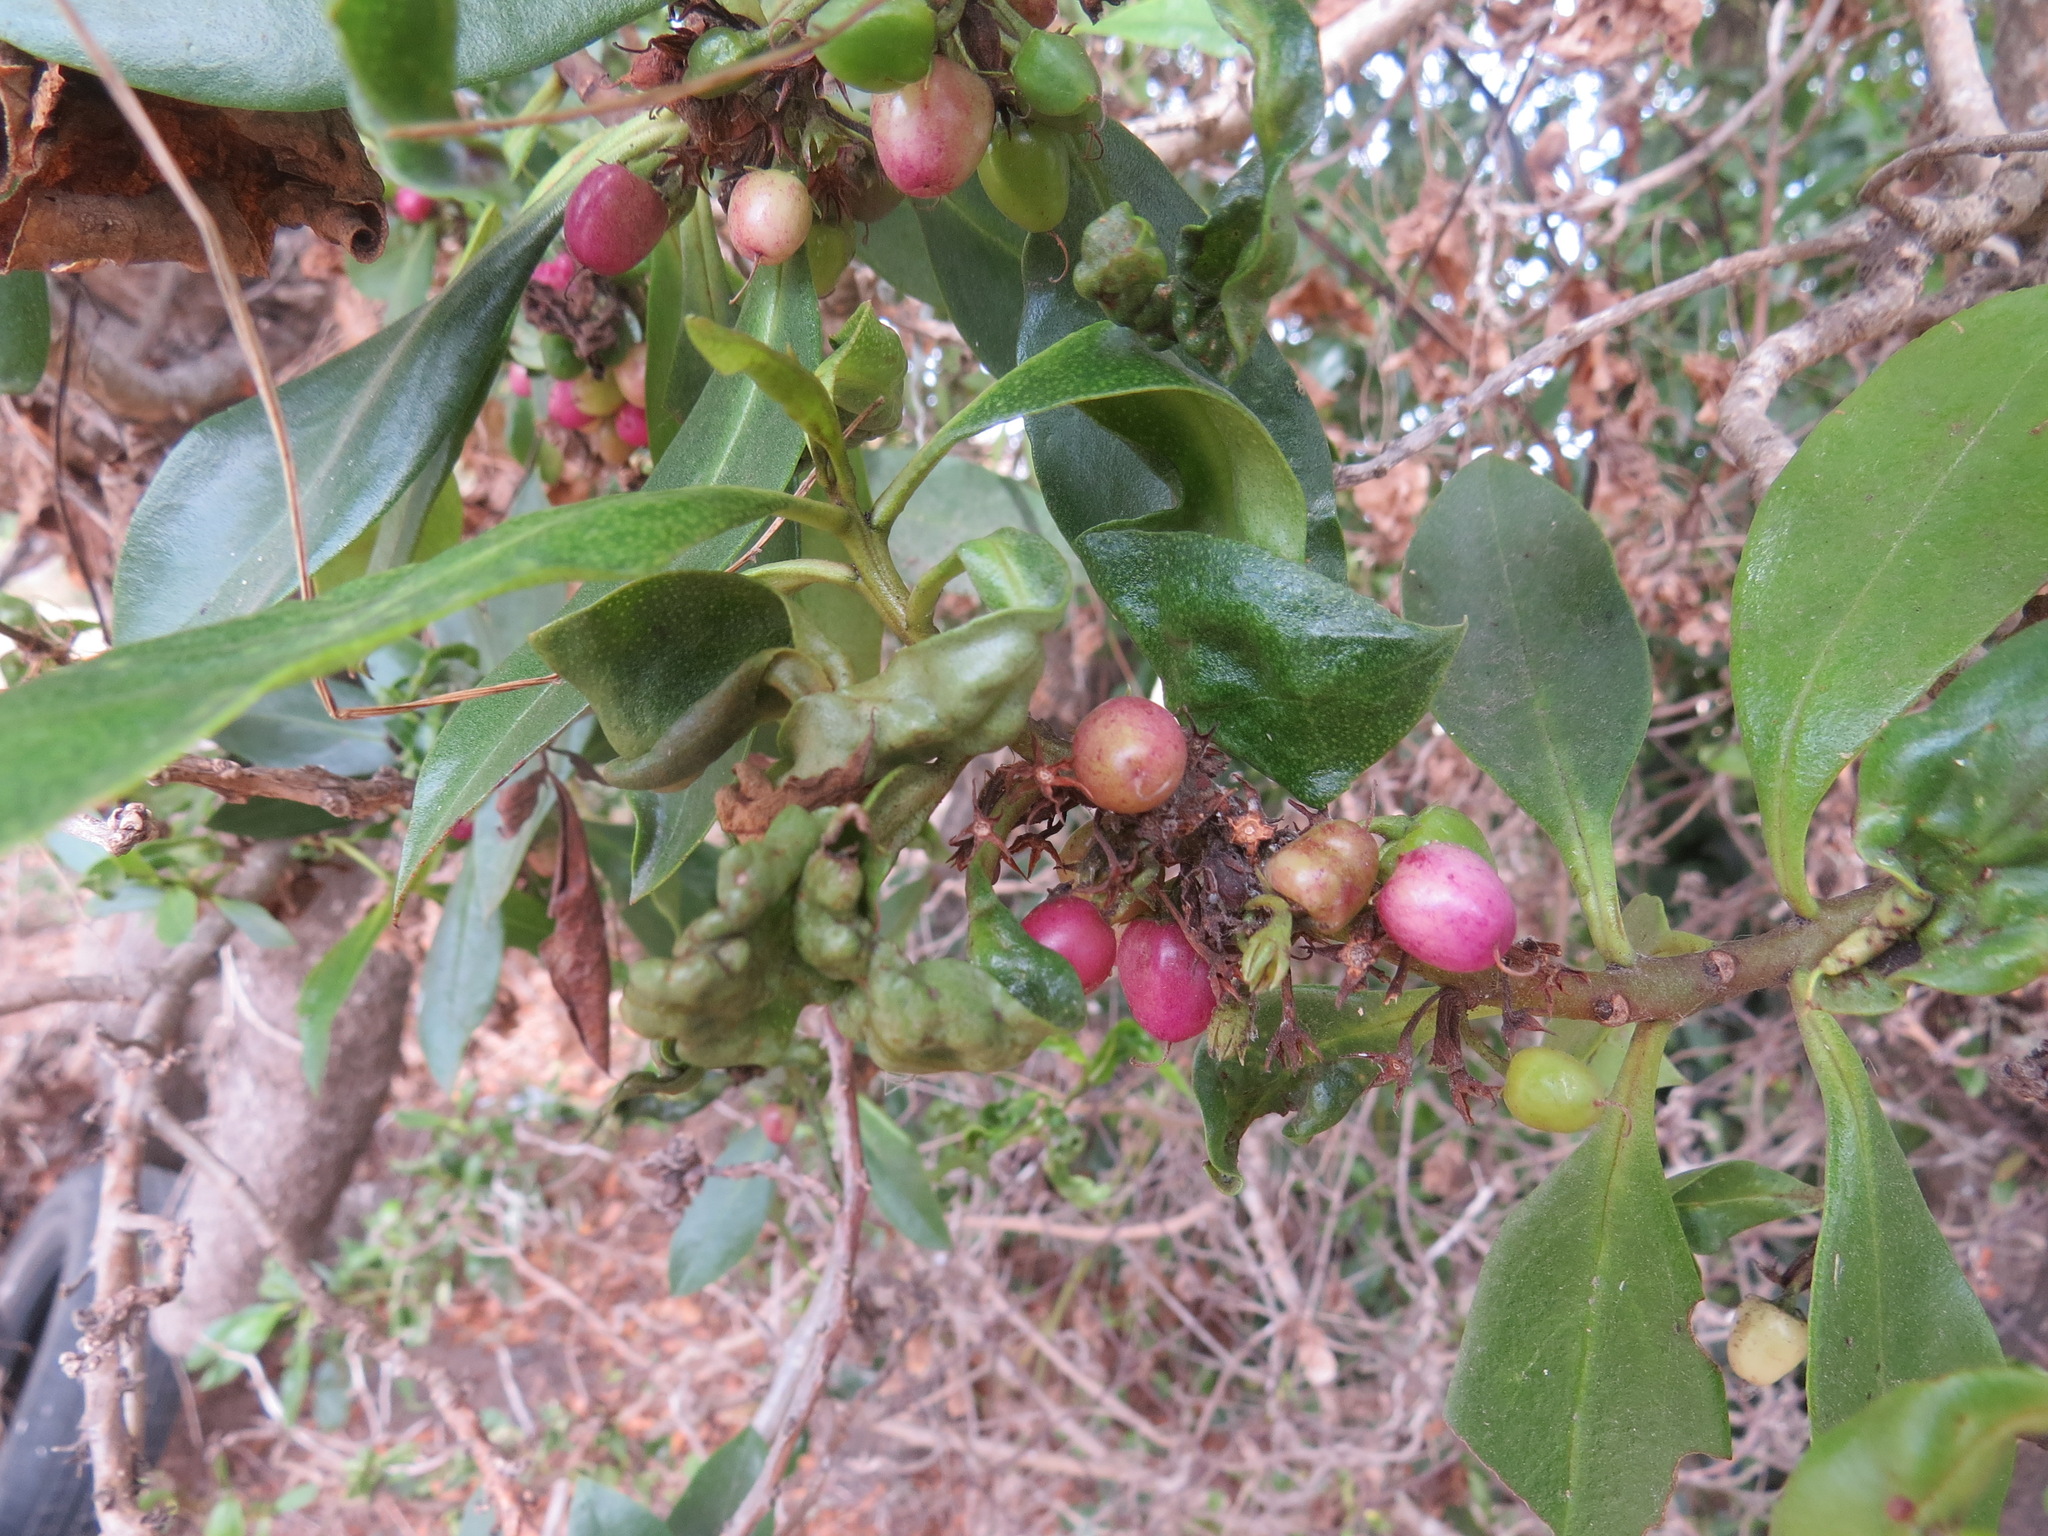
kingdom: Animalia
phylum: Arthropoda
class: Insecta
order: Thysanoptera
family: Phlaeothripidae
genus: Klambothrips
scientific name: Klambothrips myopori
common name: Myoporum thrips
